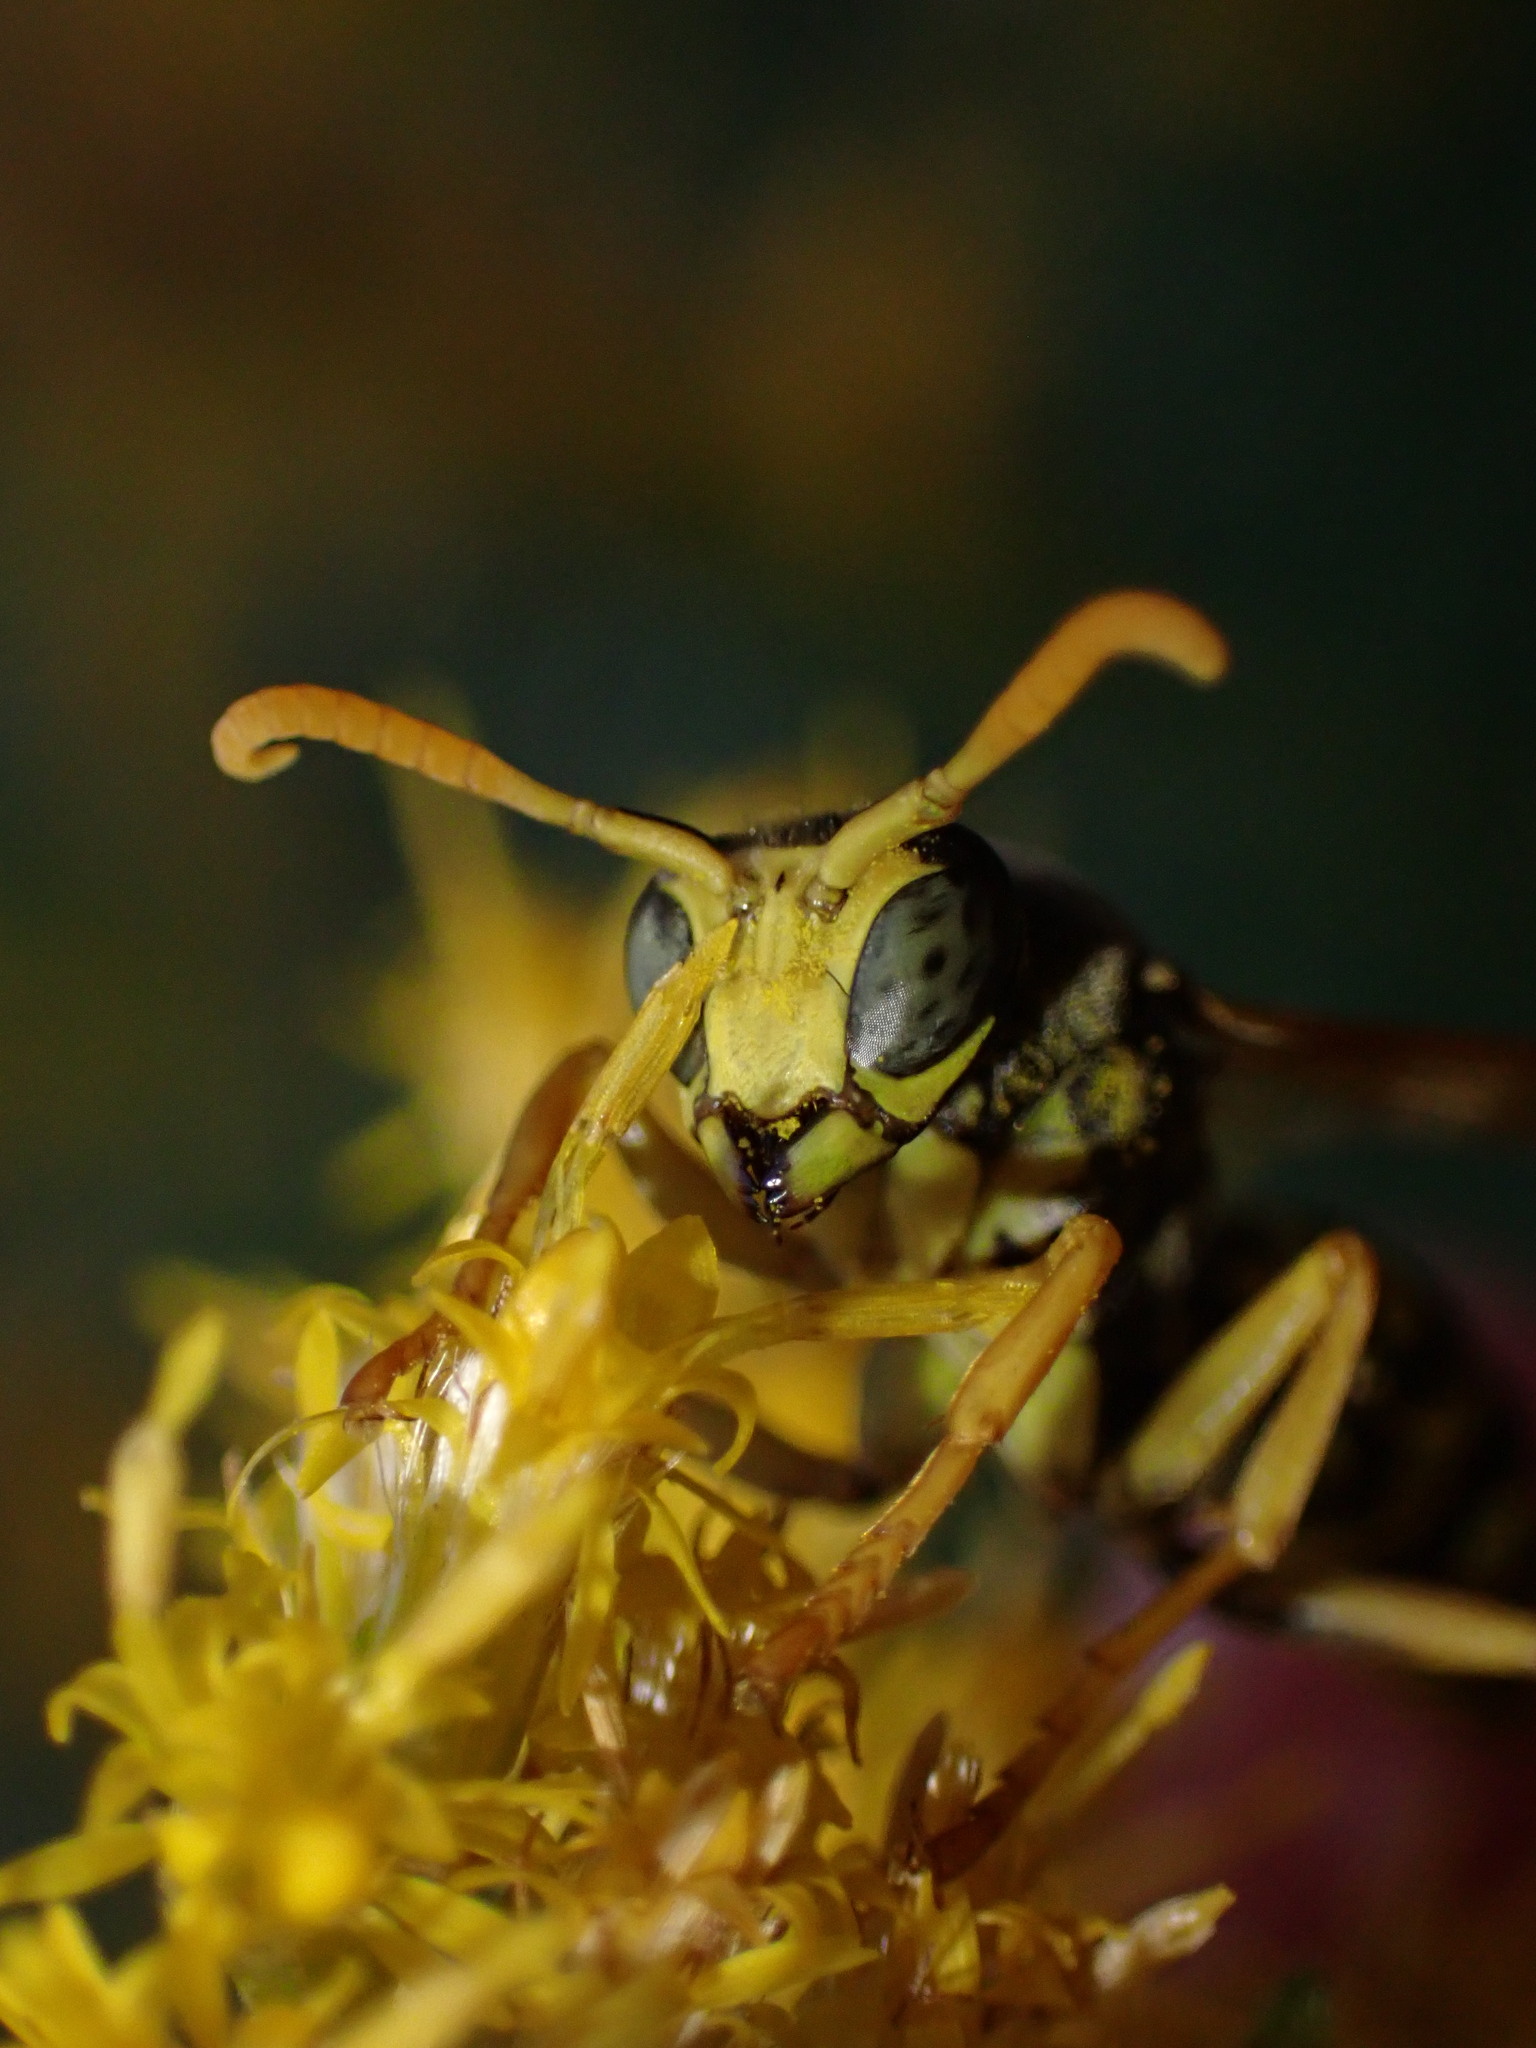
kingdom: Animalia
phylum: Arthropoda
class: Insecta
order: Hymenoptera
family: Eumenidae
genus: Polistes
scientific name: Polistes dominula
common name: Paper wasp
